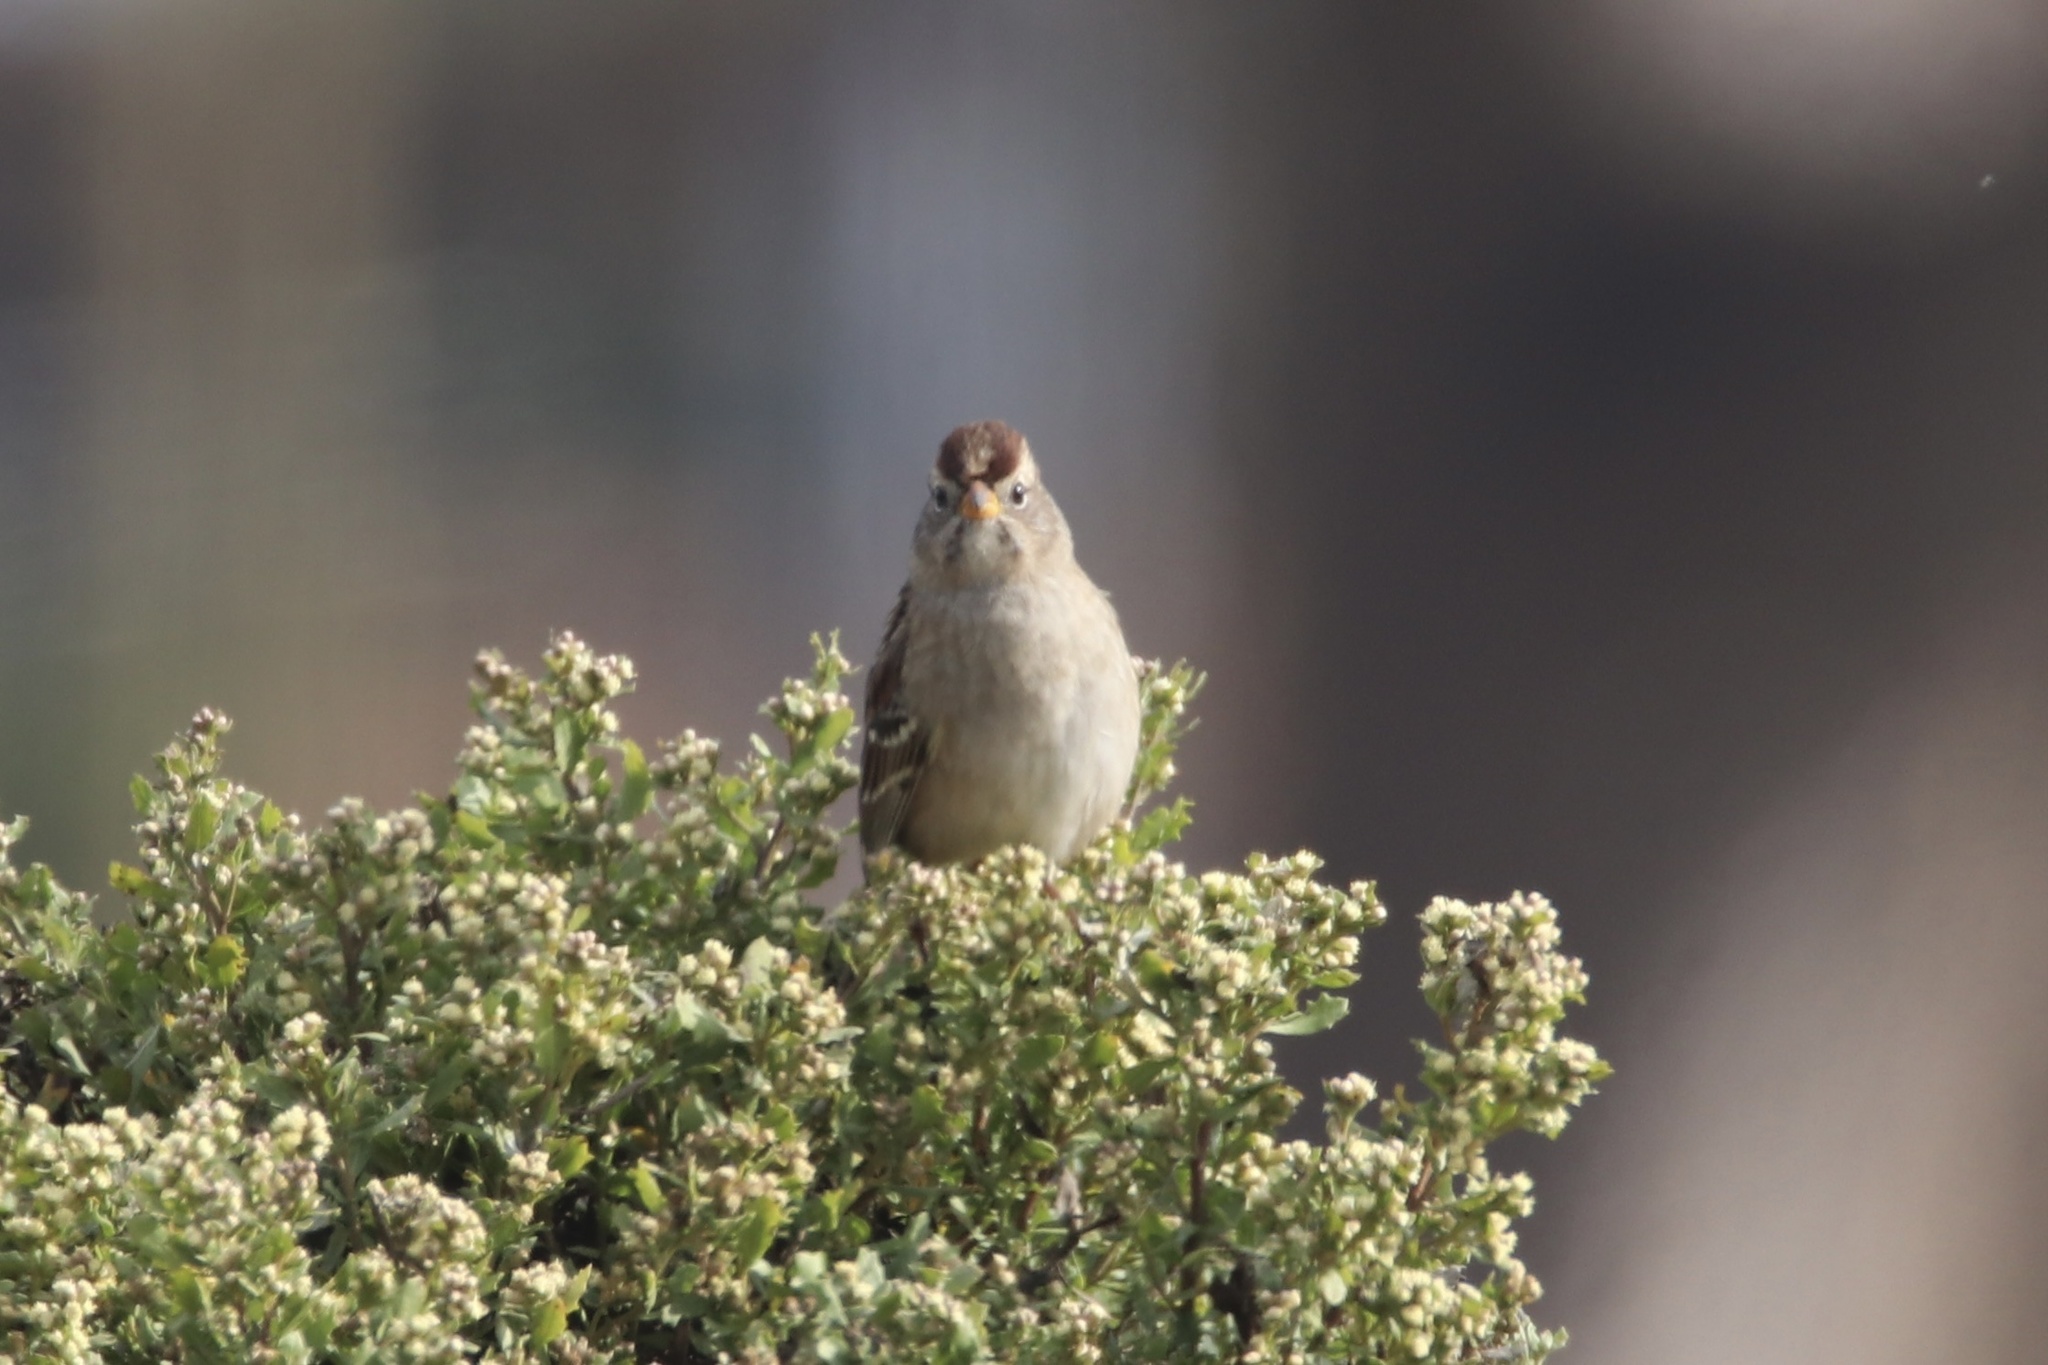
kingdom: Animalia
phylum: Chordata
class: Aves
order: Passeriformes
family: Passerellidae
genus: Zonotrichia
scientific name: Zonotrichia leucophrys
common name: White-crowned sparrow
